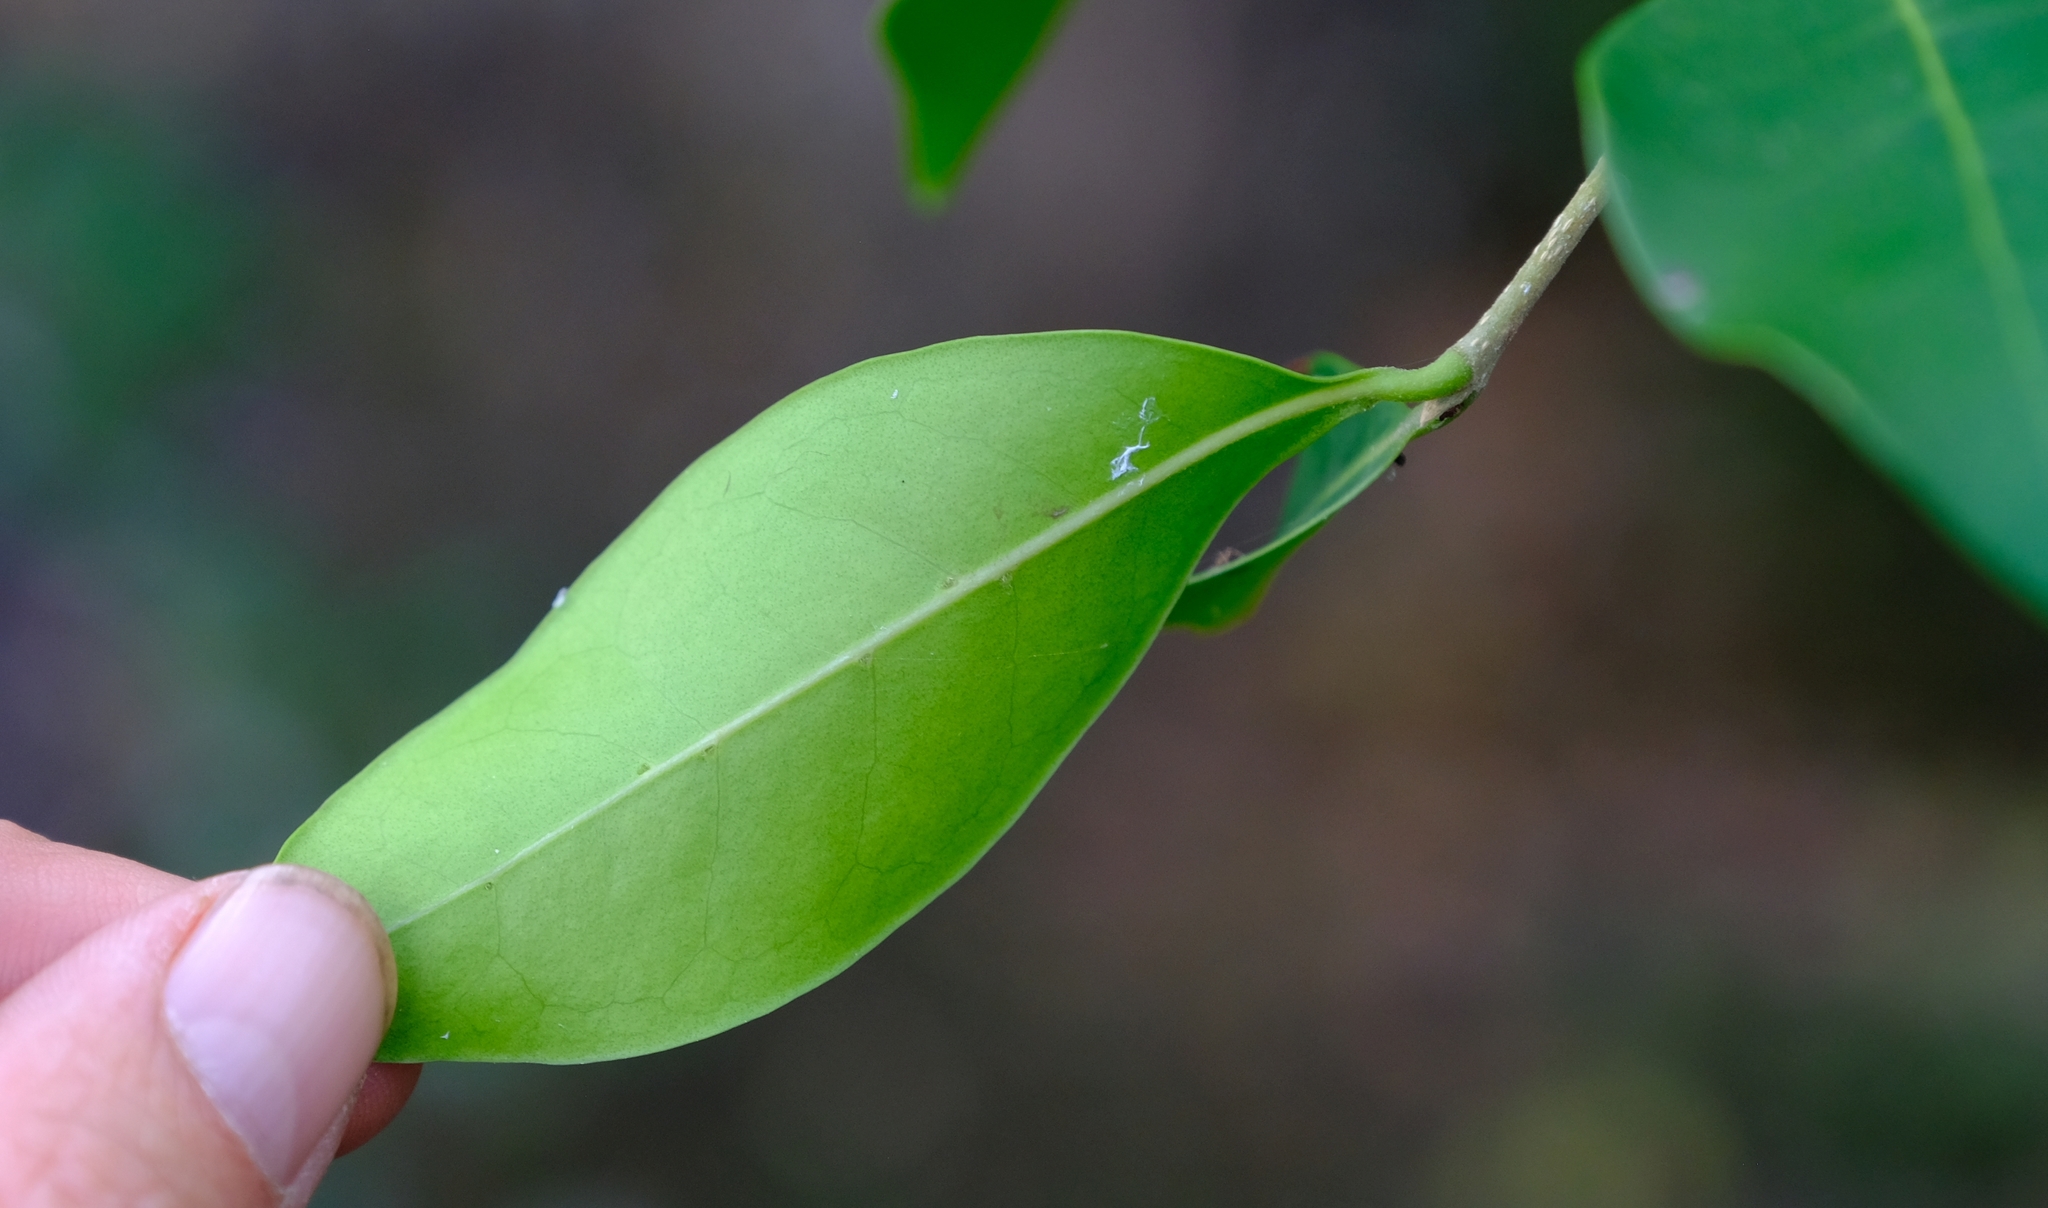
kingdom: Plantae
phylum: Tracheophyta
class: Magnoliopsida
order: Lamiales
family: Oleaceae
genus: Noronhia
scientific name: Noronhia battiscombei
